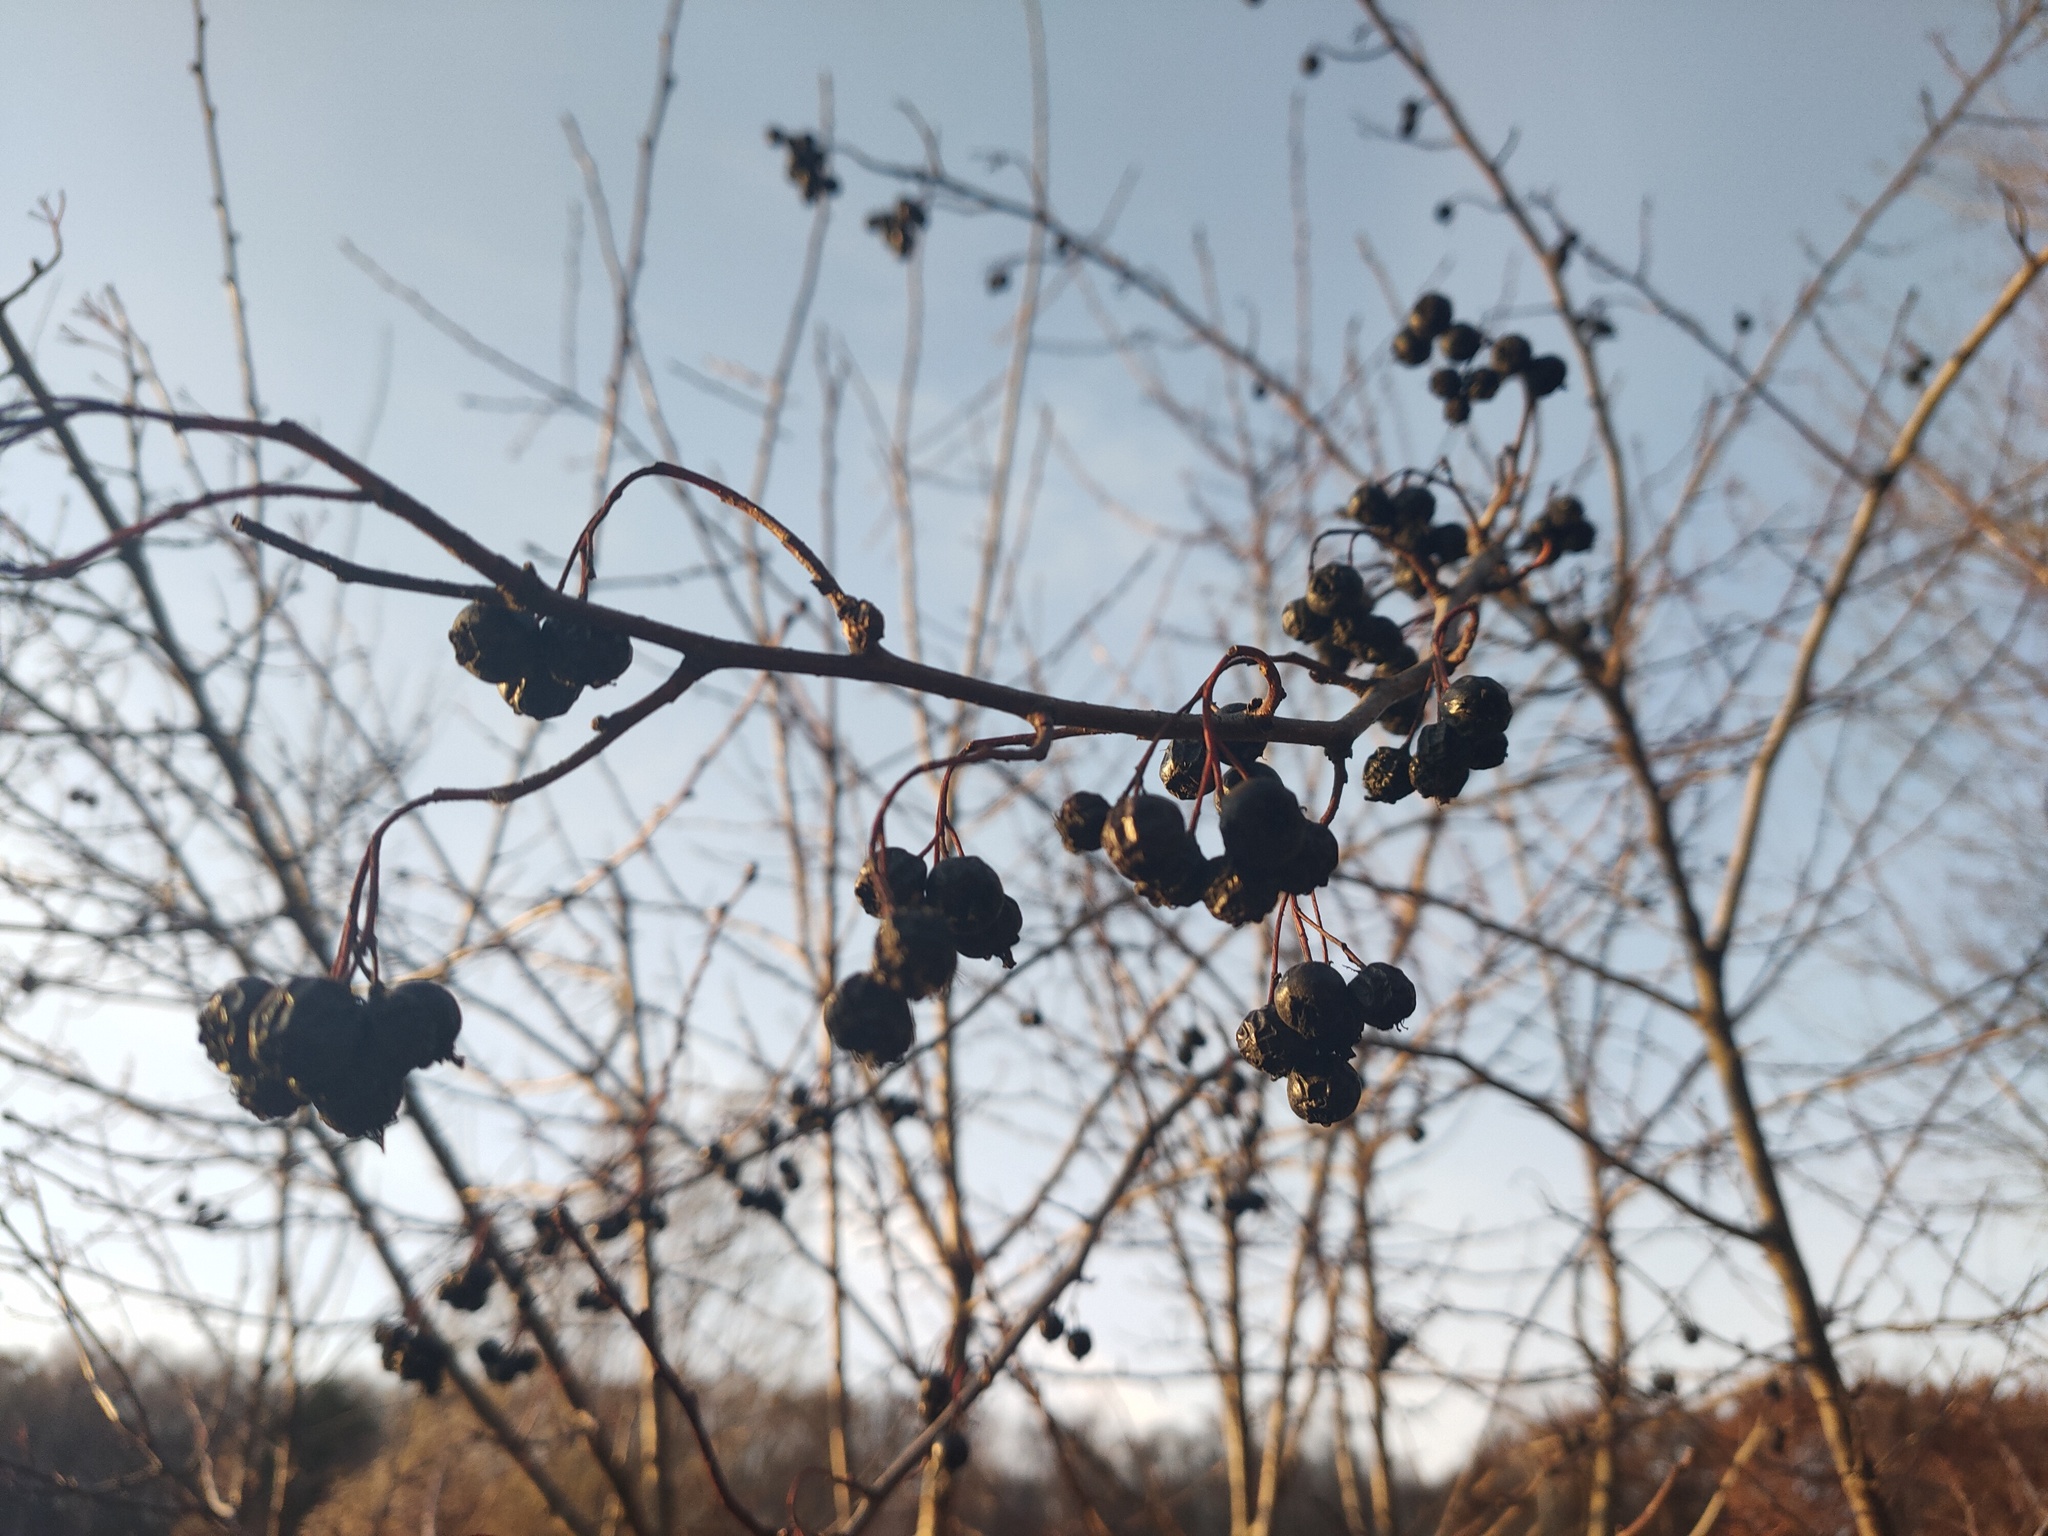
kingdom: Plantae
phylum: Tracheophyta
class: Magnoliopsida
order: Rosales
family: Rosaceae
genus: Sorbaronia
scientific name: Sorbaronia arsenii
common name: Arsène's mountain-ash
